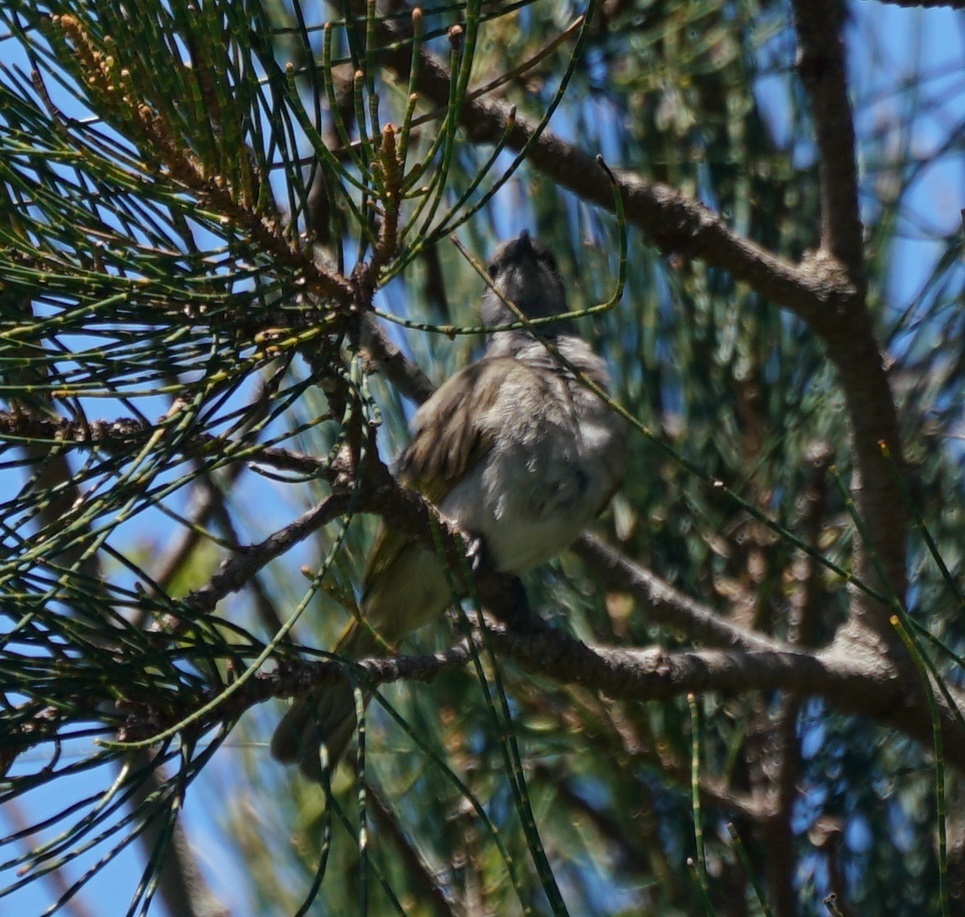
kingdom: Animalia
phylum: Chordata
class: Aves
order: Passeriformes
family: Meliphagidae
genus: Lichmera
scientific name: Lichmera indistincta
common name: Brown honeyeater
